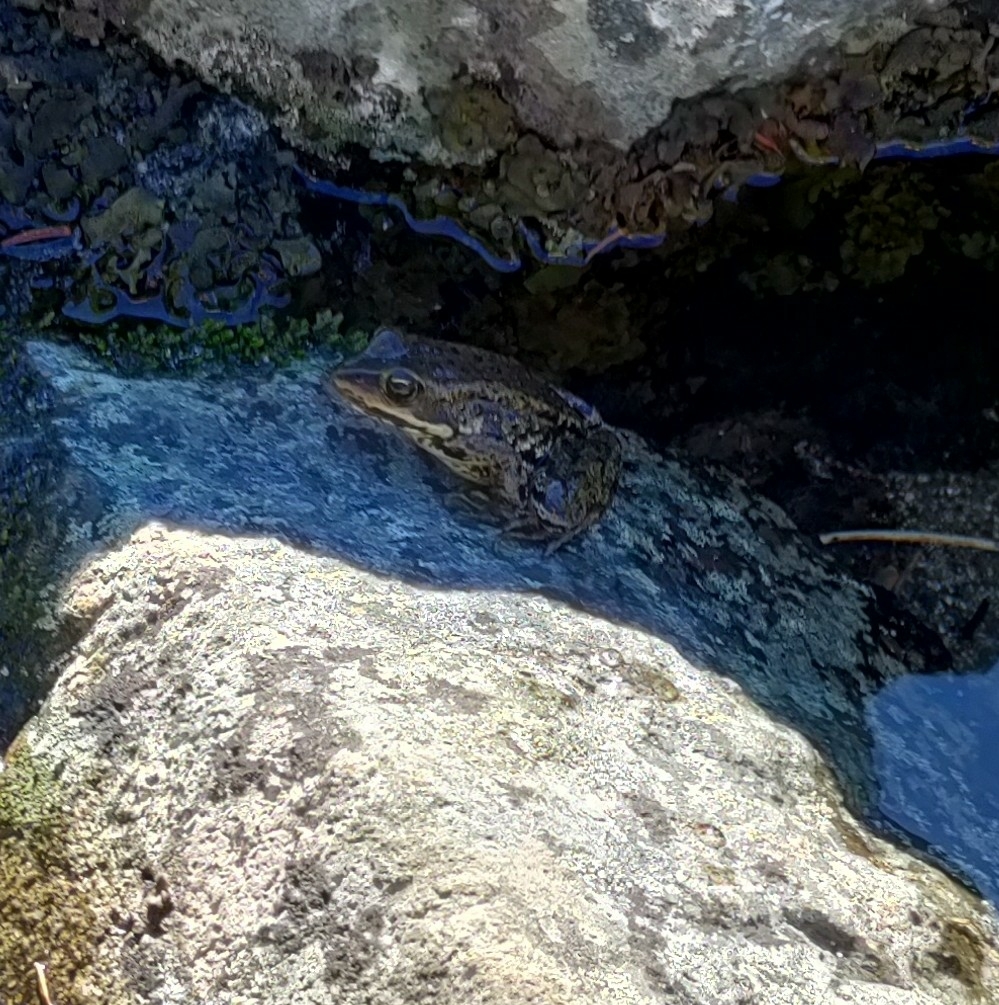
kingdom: Animalia
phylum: Chordata
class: Amphibia
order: Anura
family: Ranidae
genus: Rana
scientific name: Rana cascadae
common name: Cascades frog
